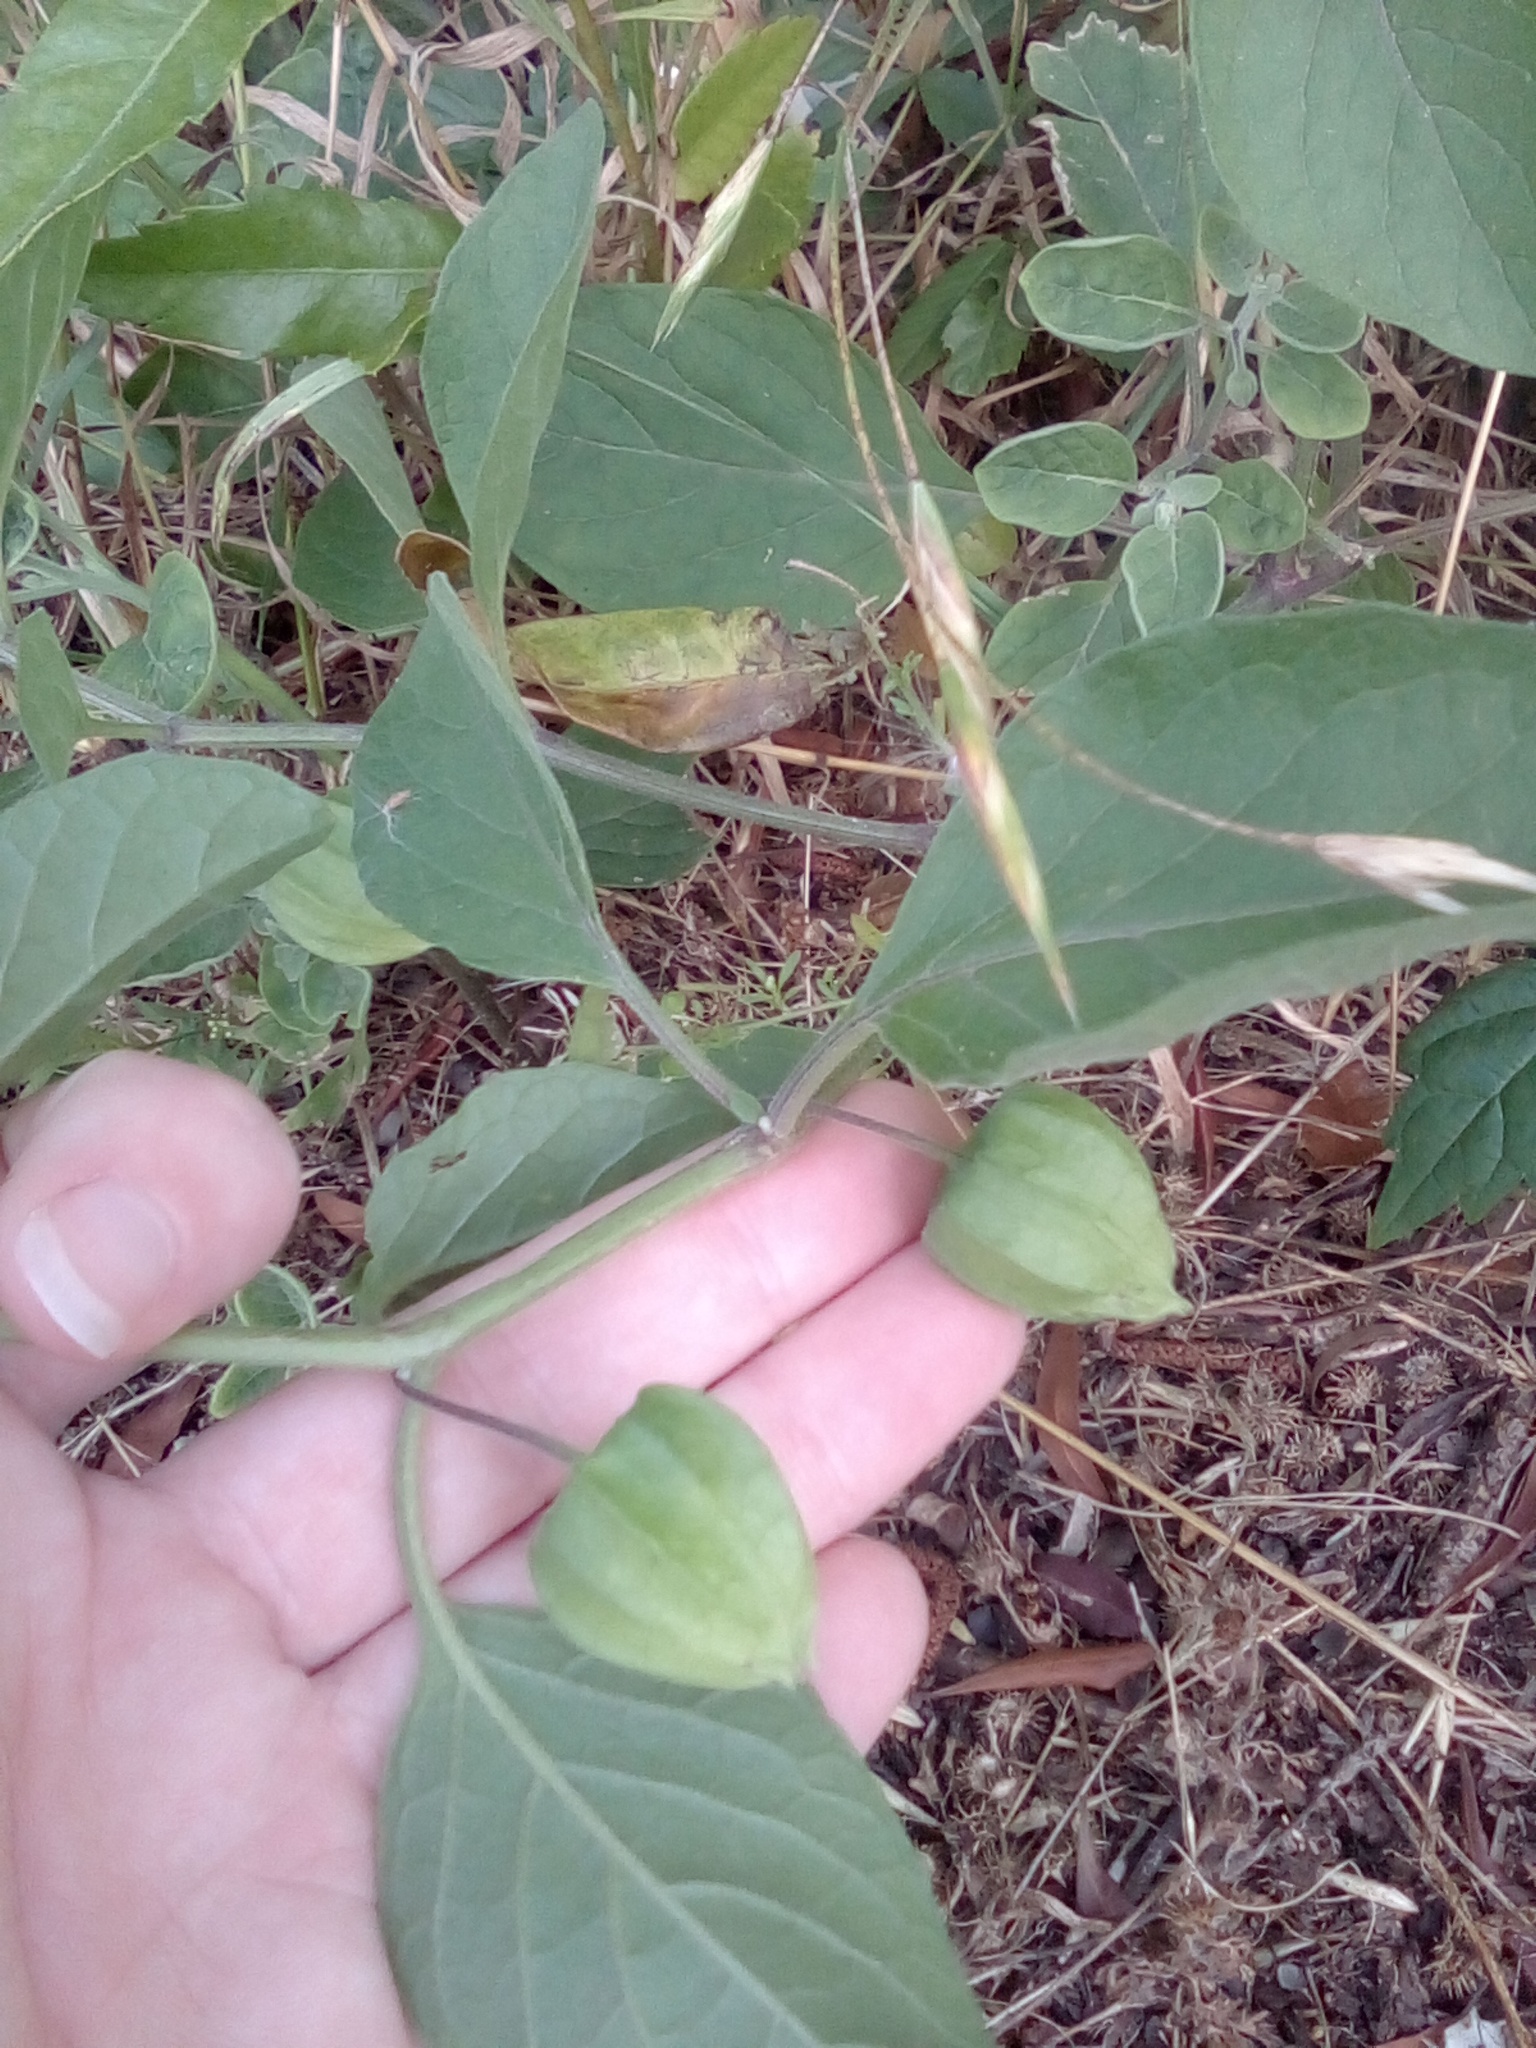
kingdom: Plantae
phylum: Tracheophyta
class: Magnoliopsida
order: Solanales
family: Solanaceae
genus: Physalis
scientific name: Physalis walteri
